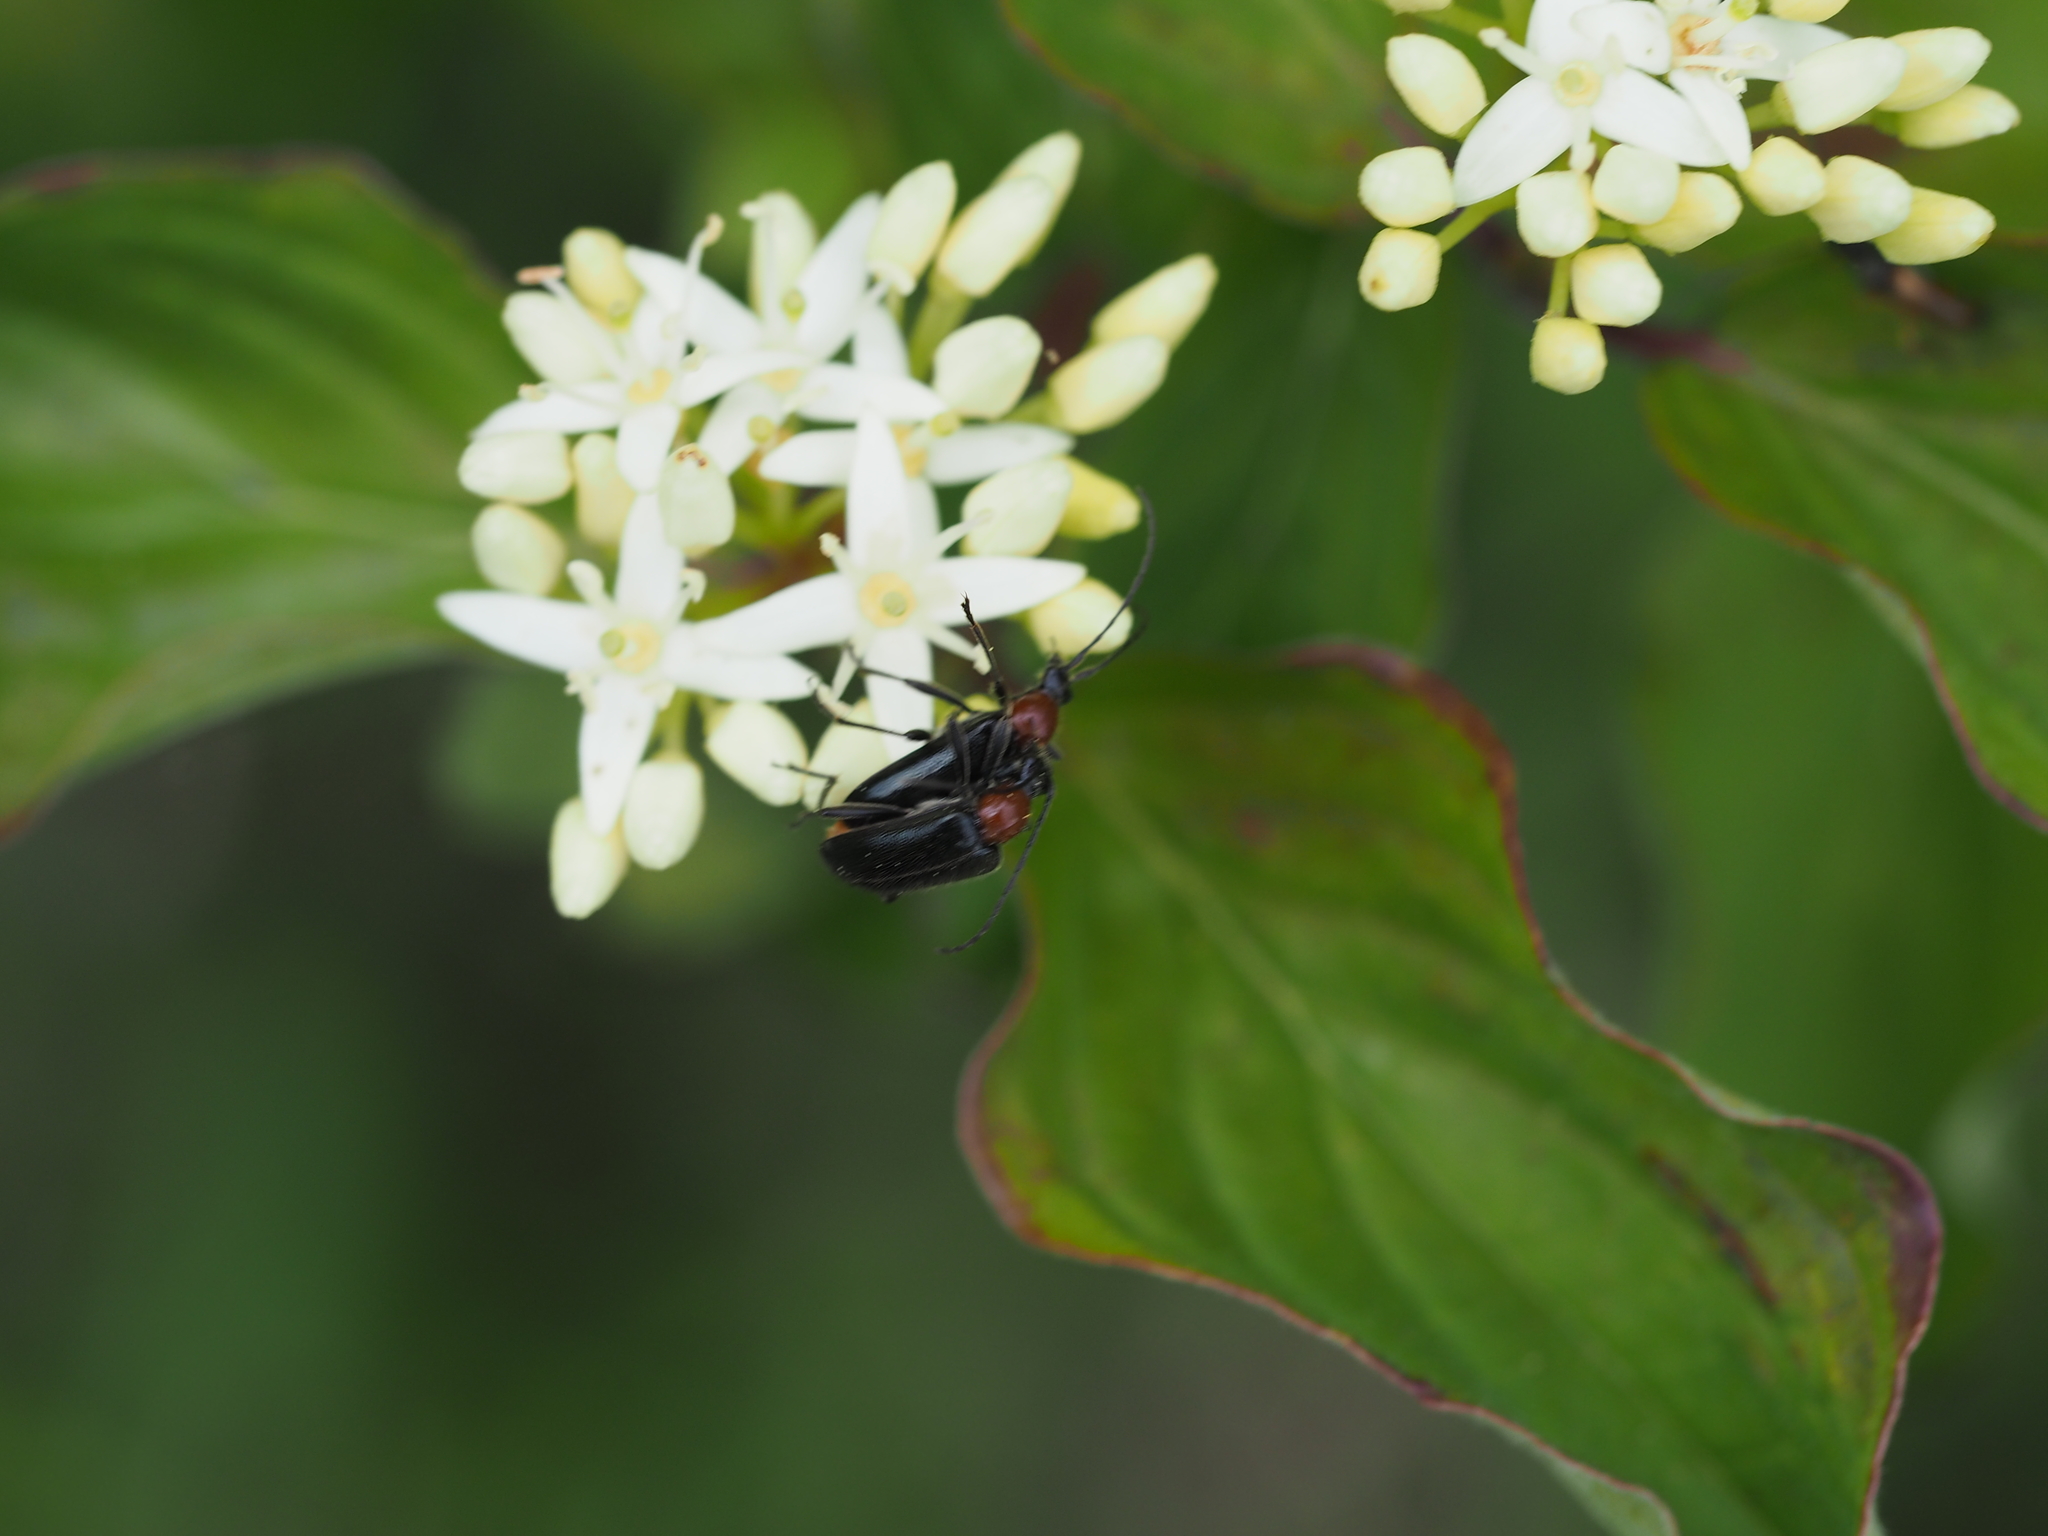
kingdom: Animalia
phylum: Arthropoda
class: Insecta
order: Coleoptera
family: Cerambycidae
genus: Dinoptera
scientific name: Dinoptera collaris
